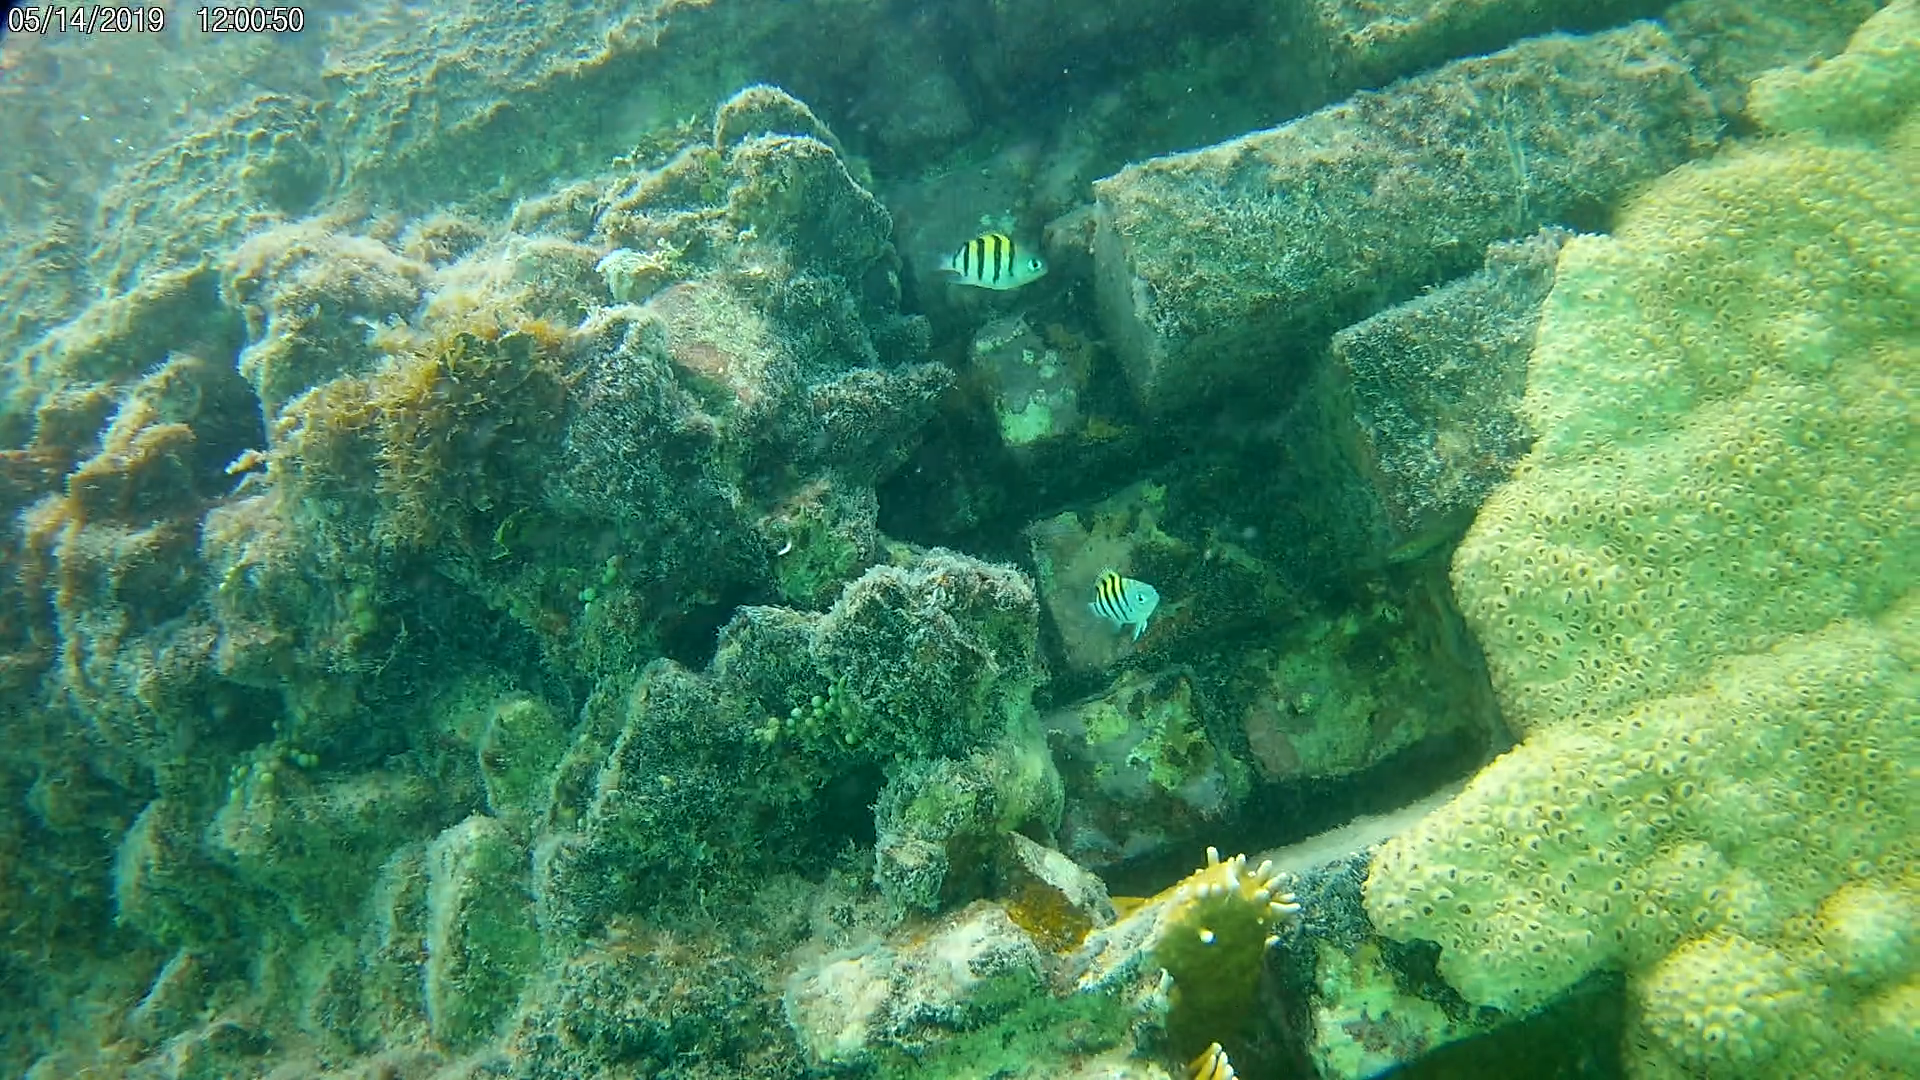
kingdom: Animalia
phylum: Chordata
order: Perciformes
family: Pomacentridae
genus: Abudefduf
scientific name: Abudefduf saxatilis
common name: Sergeant major
